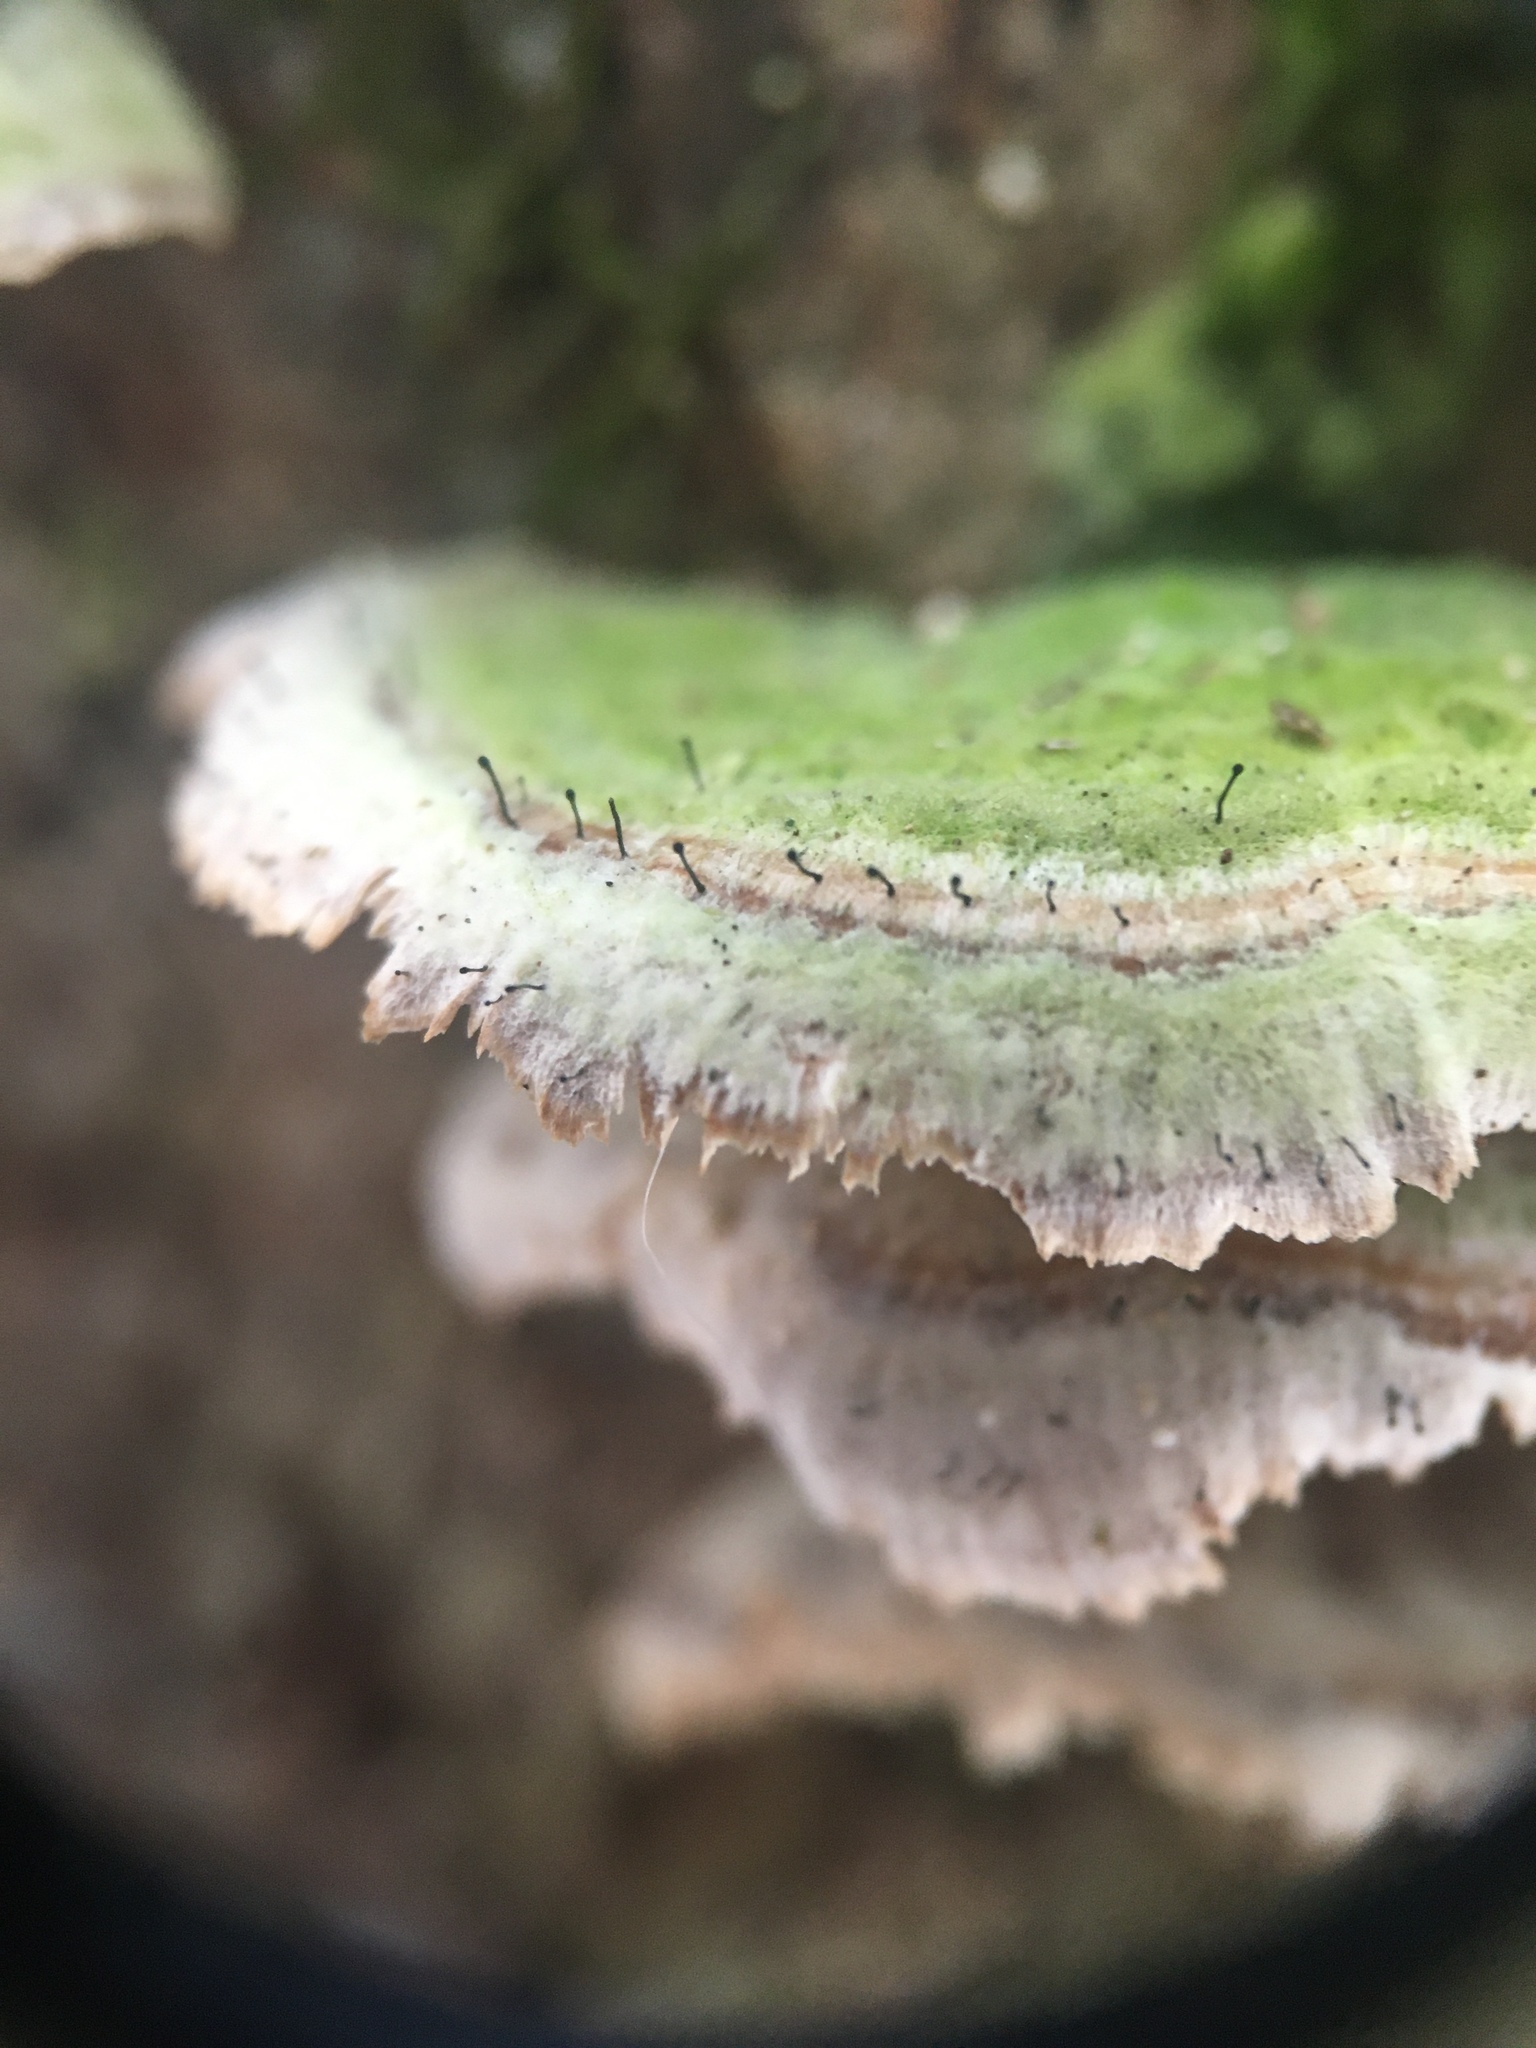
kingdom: Fungi
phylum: Ascomycota
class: Eurotiomycetes
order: Mycocaliciales
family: Mycocaliciaceae
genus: Phaeocalicium
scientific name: Phaeocalicium polyporaeum
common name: Fairy pins
